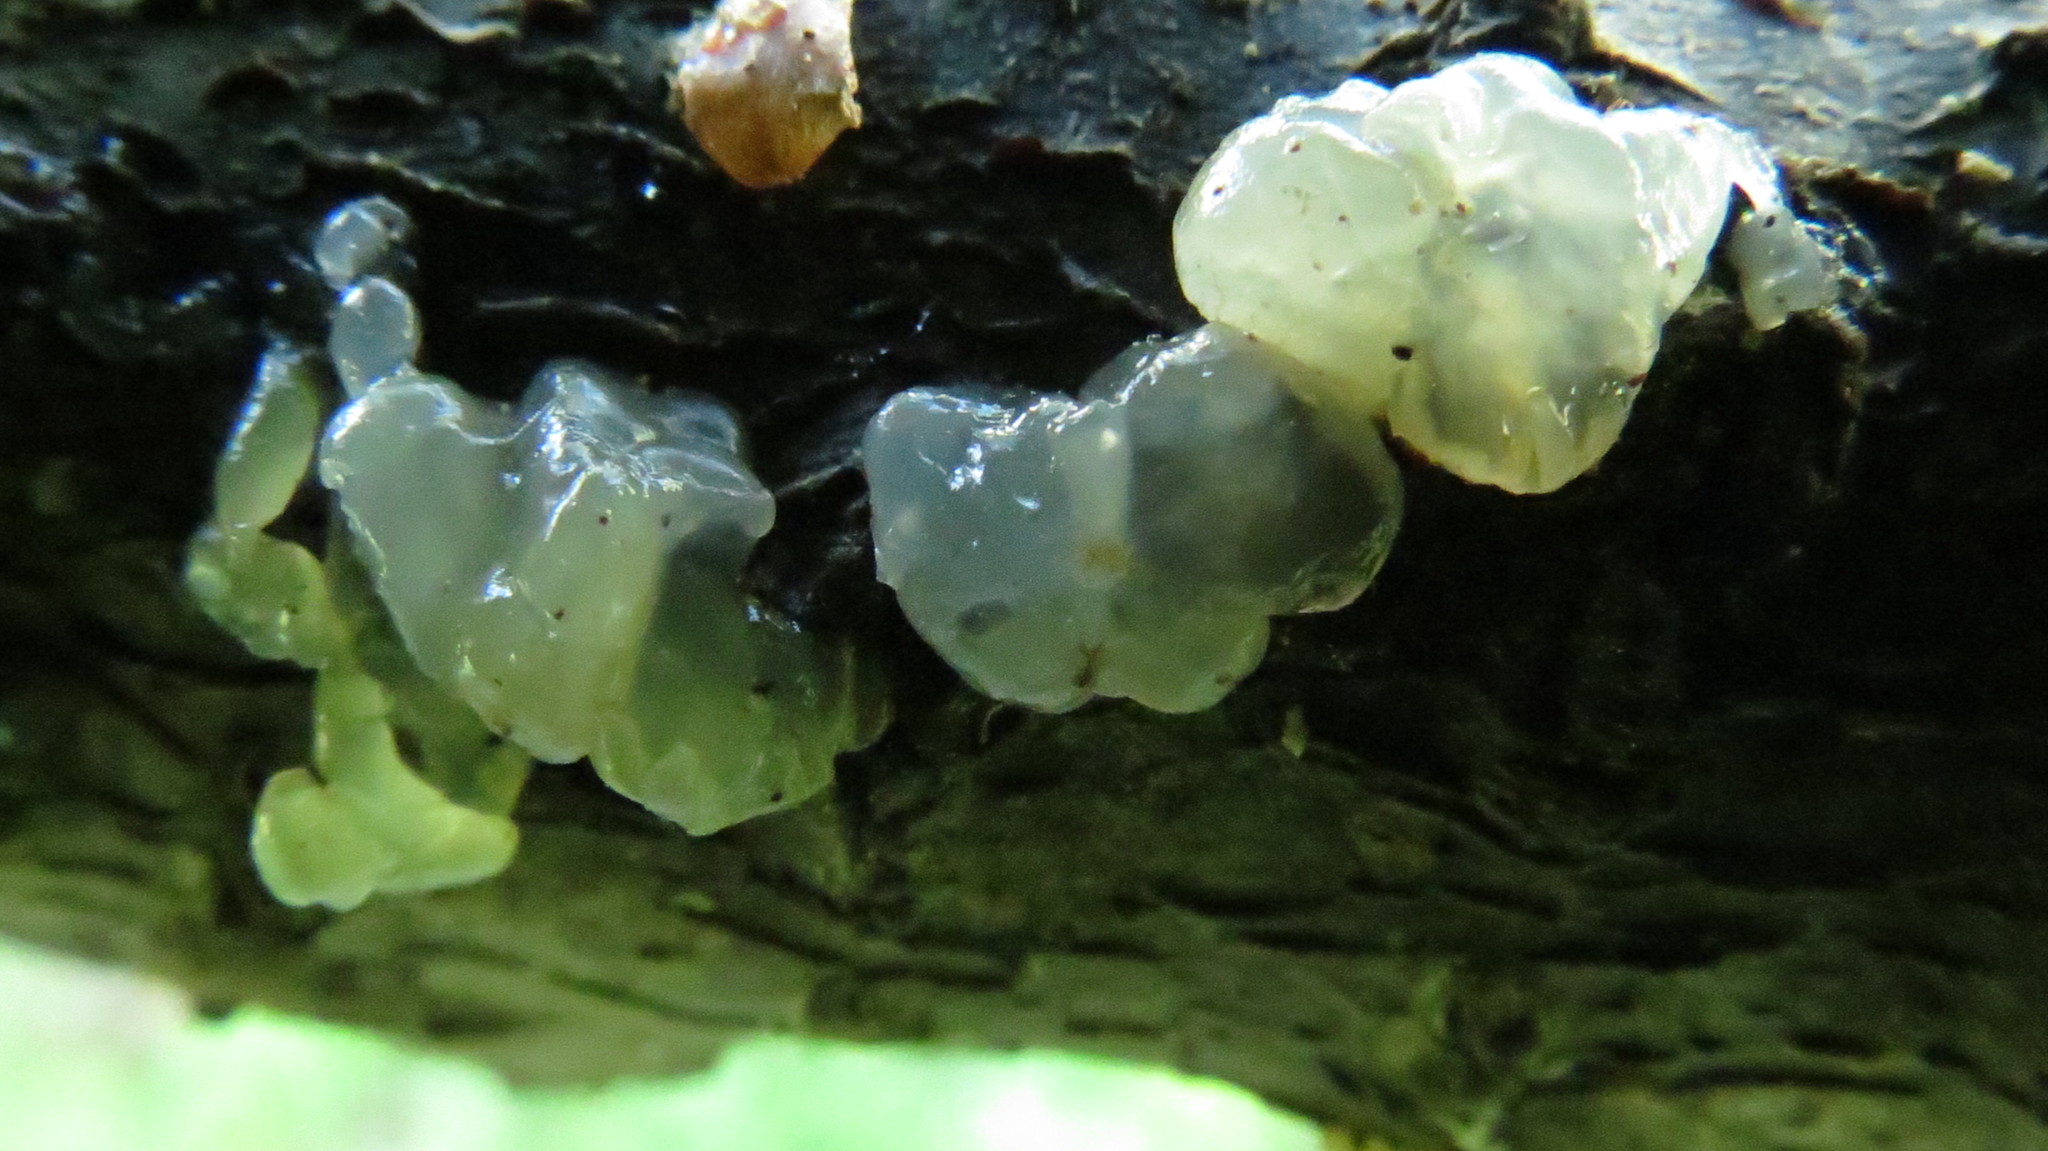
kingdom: Fungi
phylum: Basidiomycota
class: Agaricomycetes
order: Auriculariales
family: Hyaloriaceae
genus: Myxarium
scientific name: Myxarium nucleatum
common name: Crystal brain fungus
